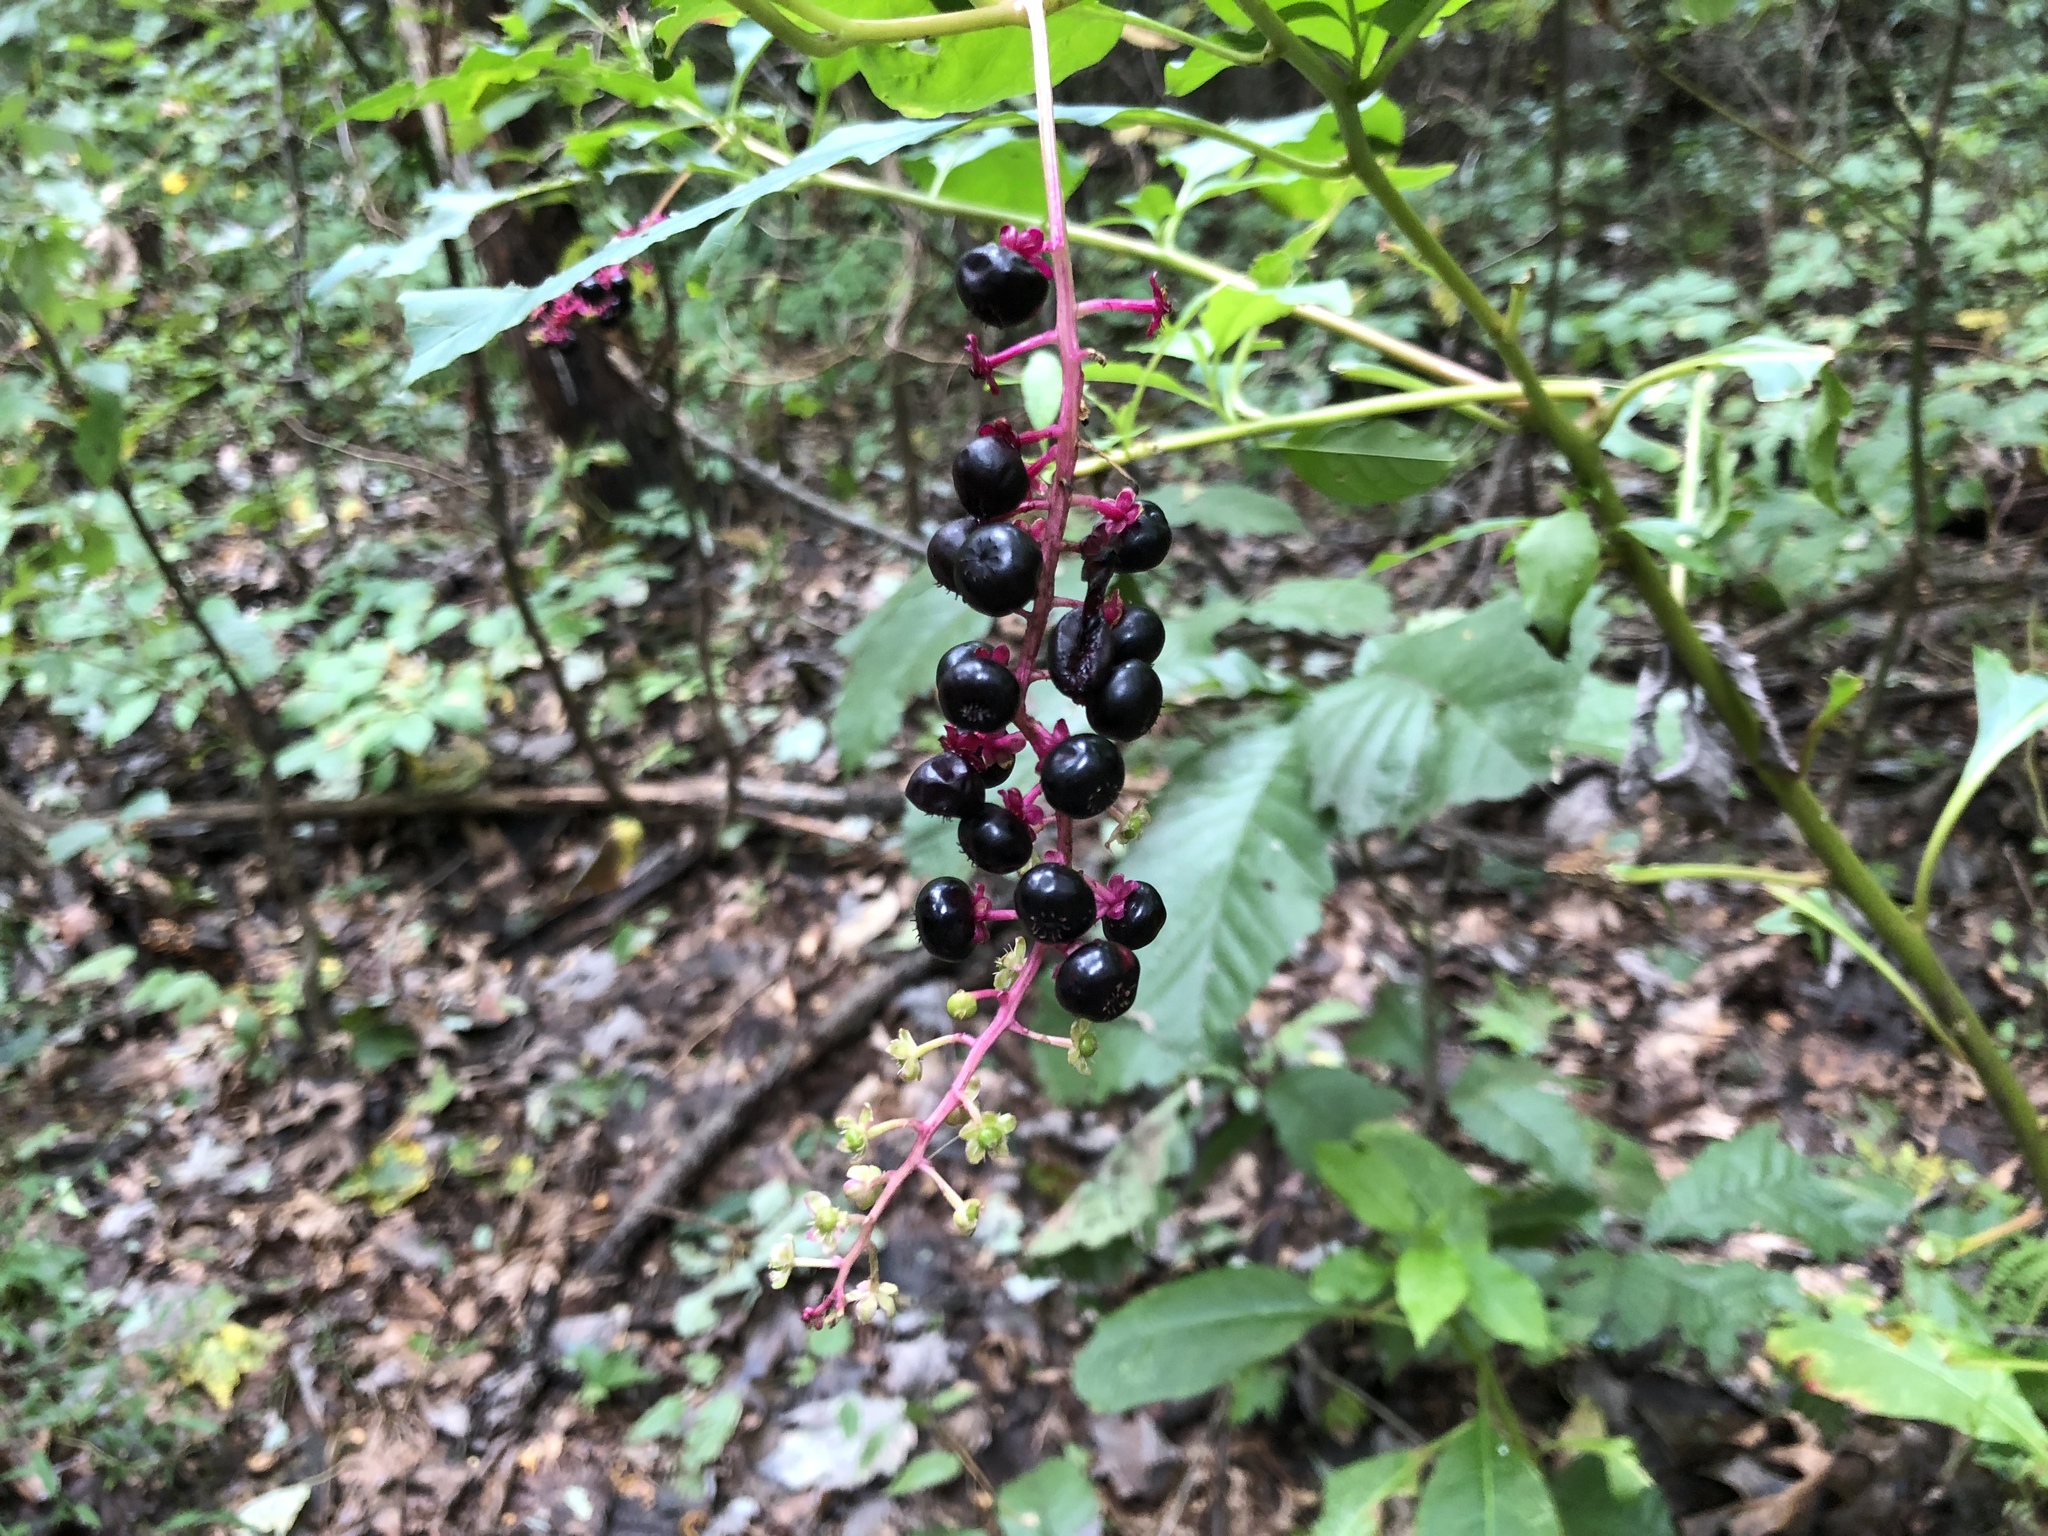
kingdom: Plantae
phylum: Tracheophyta
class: Magnoliopsida
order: Caryophyllales
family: Phytolaccaceae
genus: Phytolacca
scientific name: Phytolacca americana
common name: American pokeweed
